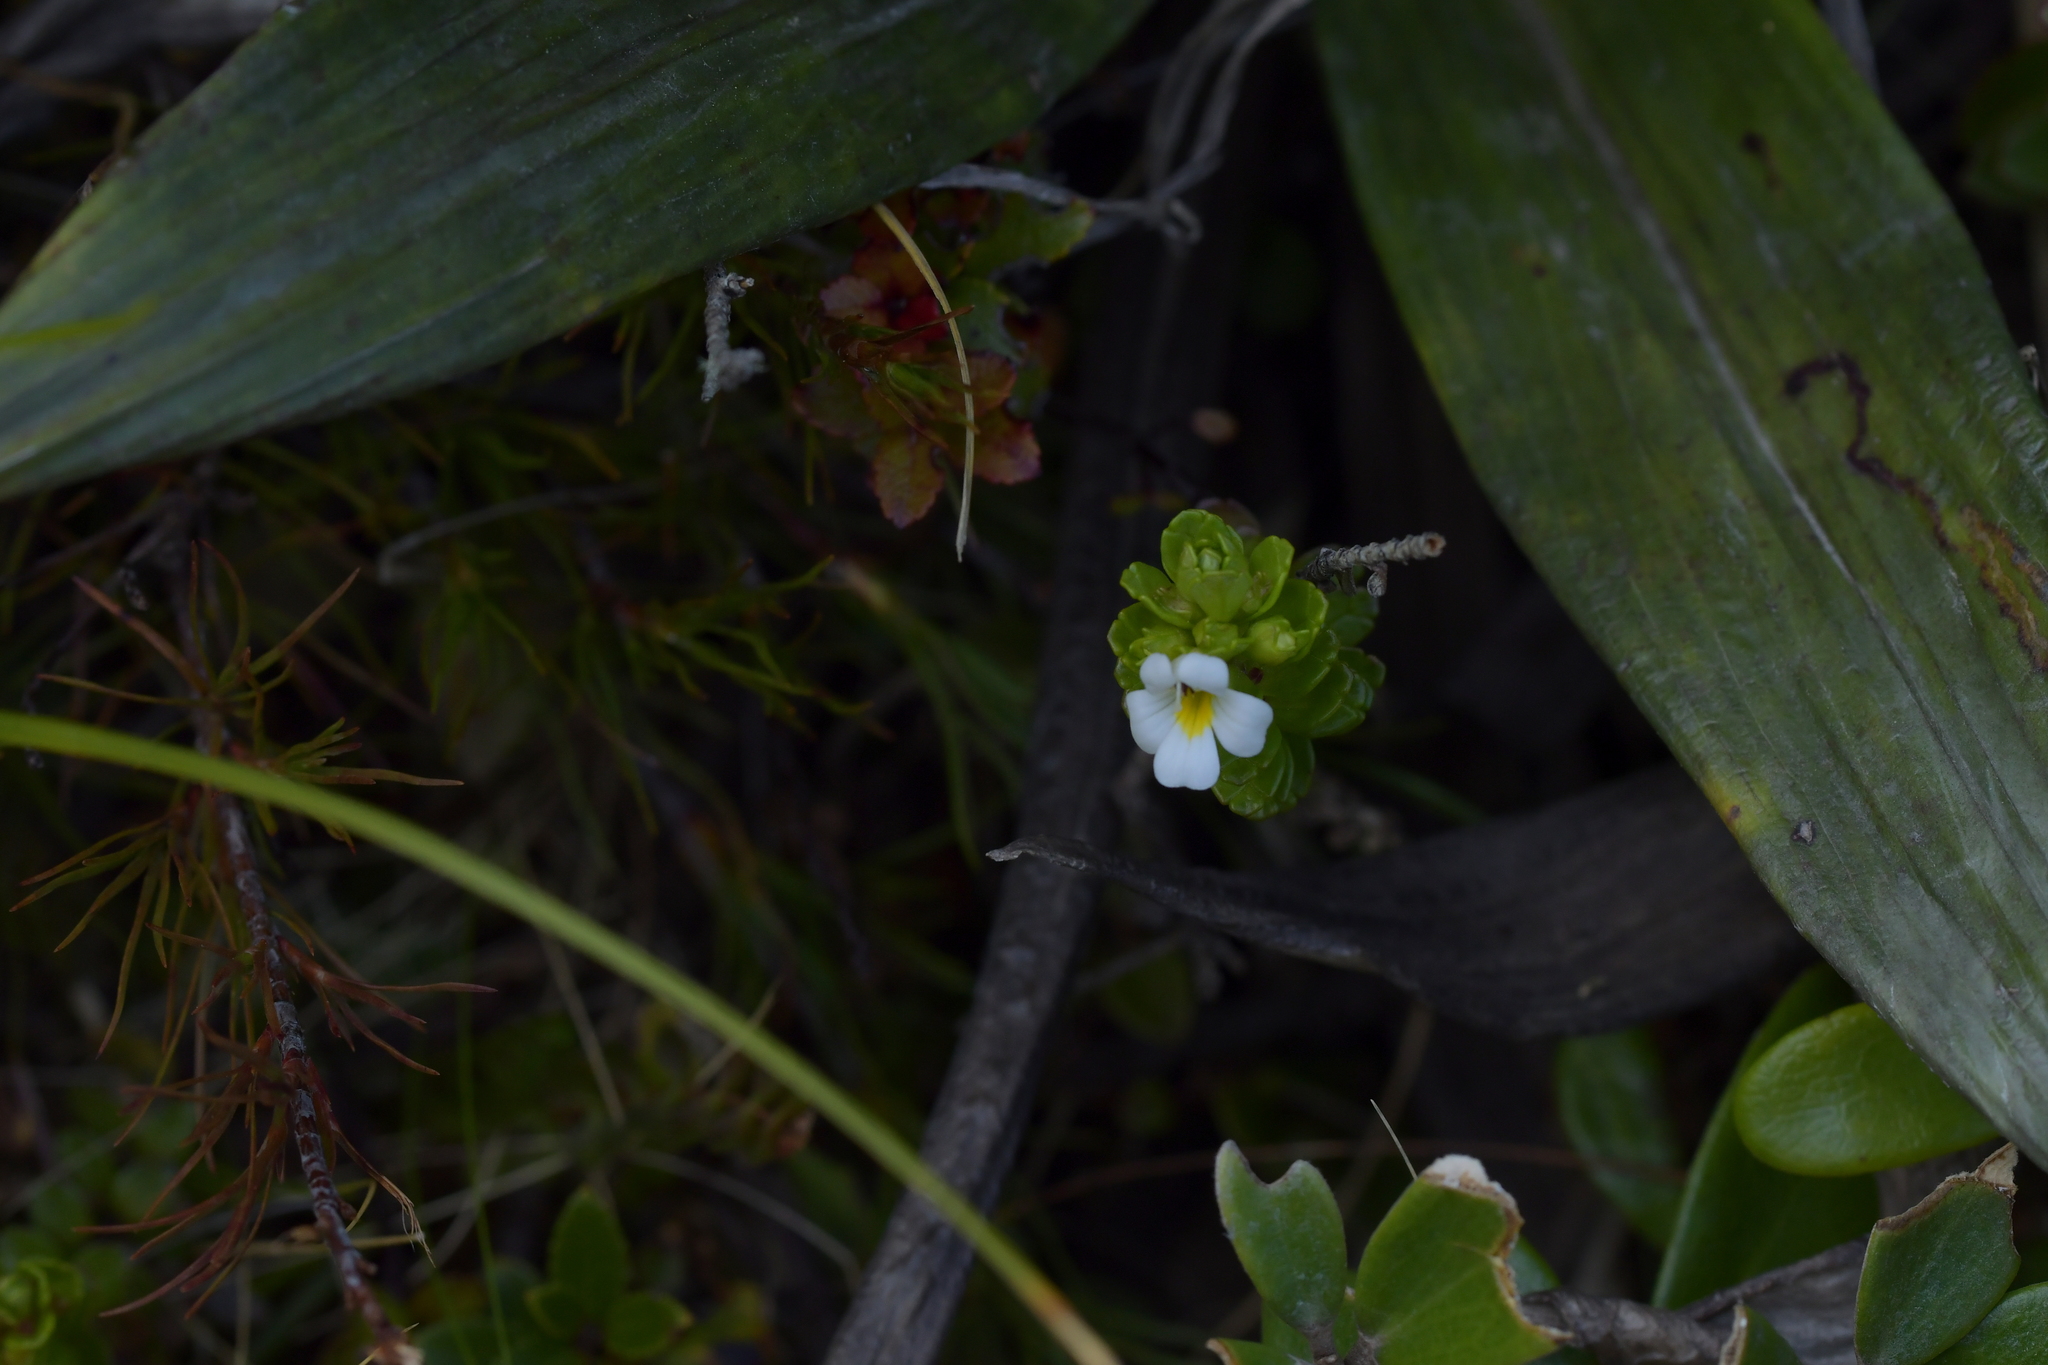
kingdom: Plantae
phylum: Tracheophyta
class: Magnoliopsida
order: Lamiales
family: Orobanchaceae
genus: Euphrasia
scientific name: Euphrasia monroi
